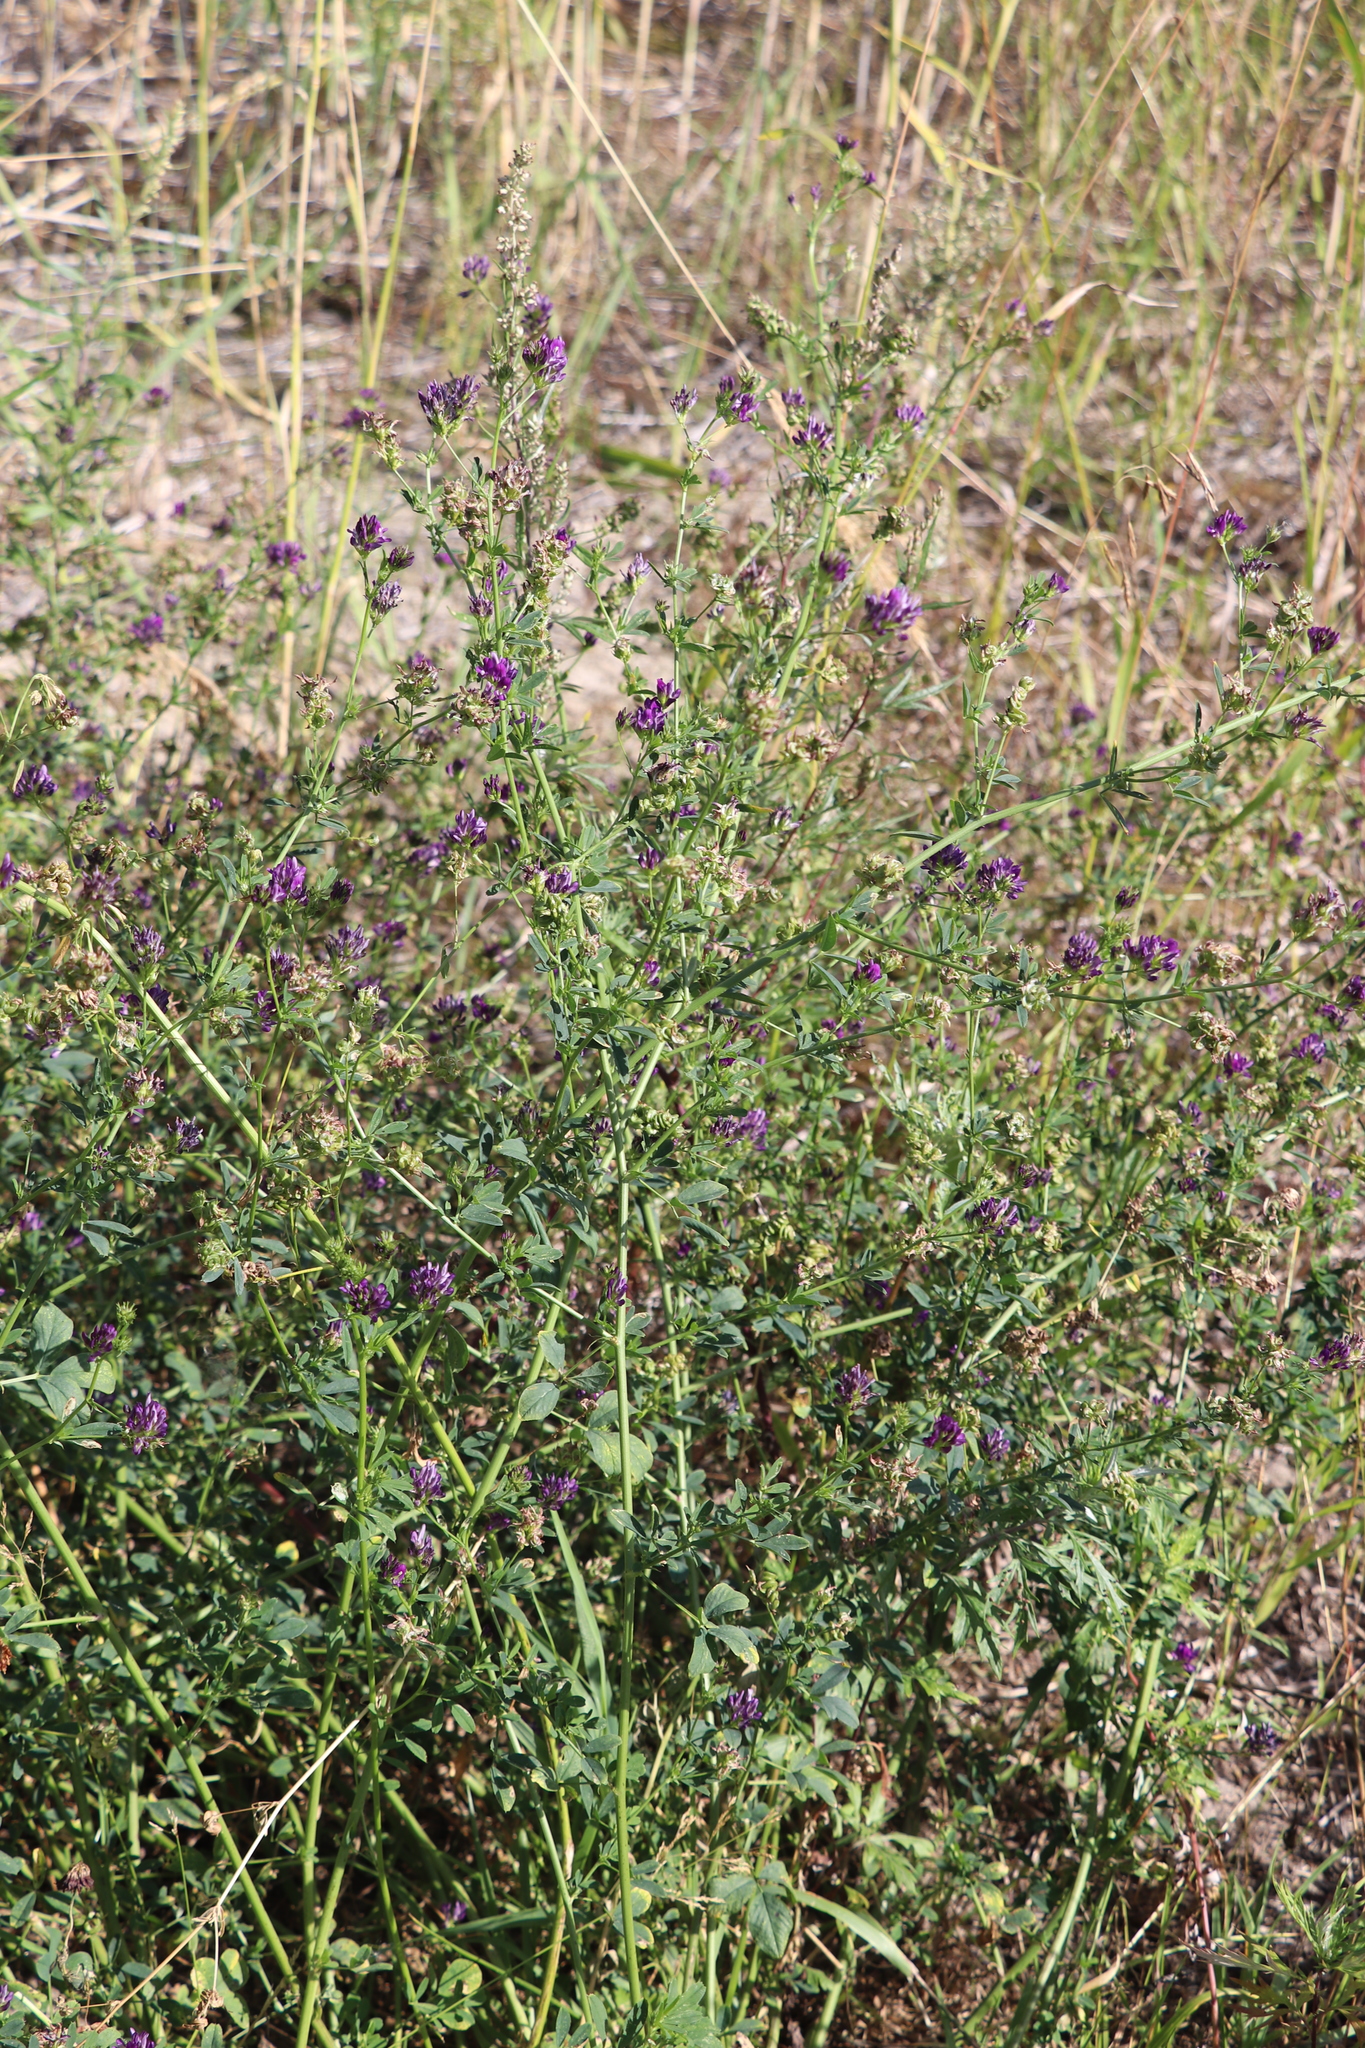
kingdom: Plantae
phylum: Tracheophyta
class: Magnoliopsida
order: Fabales
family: Fabaceae
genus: Medicago
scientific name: Medicago sativa
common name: Alfalfa
